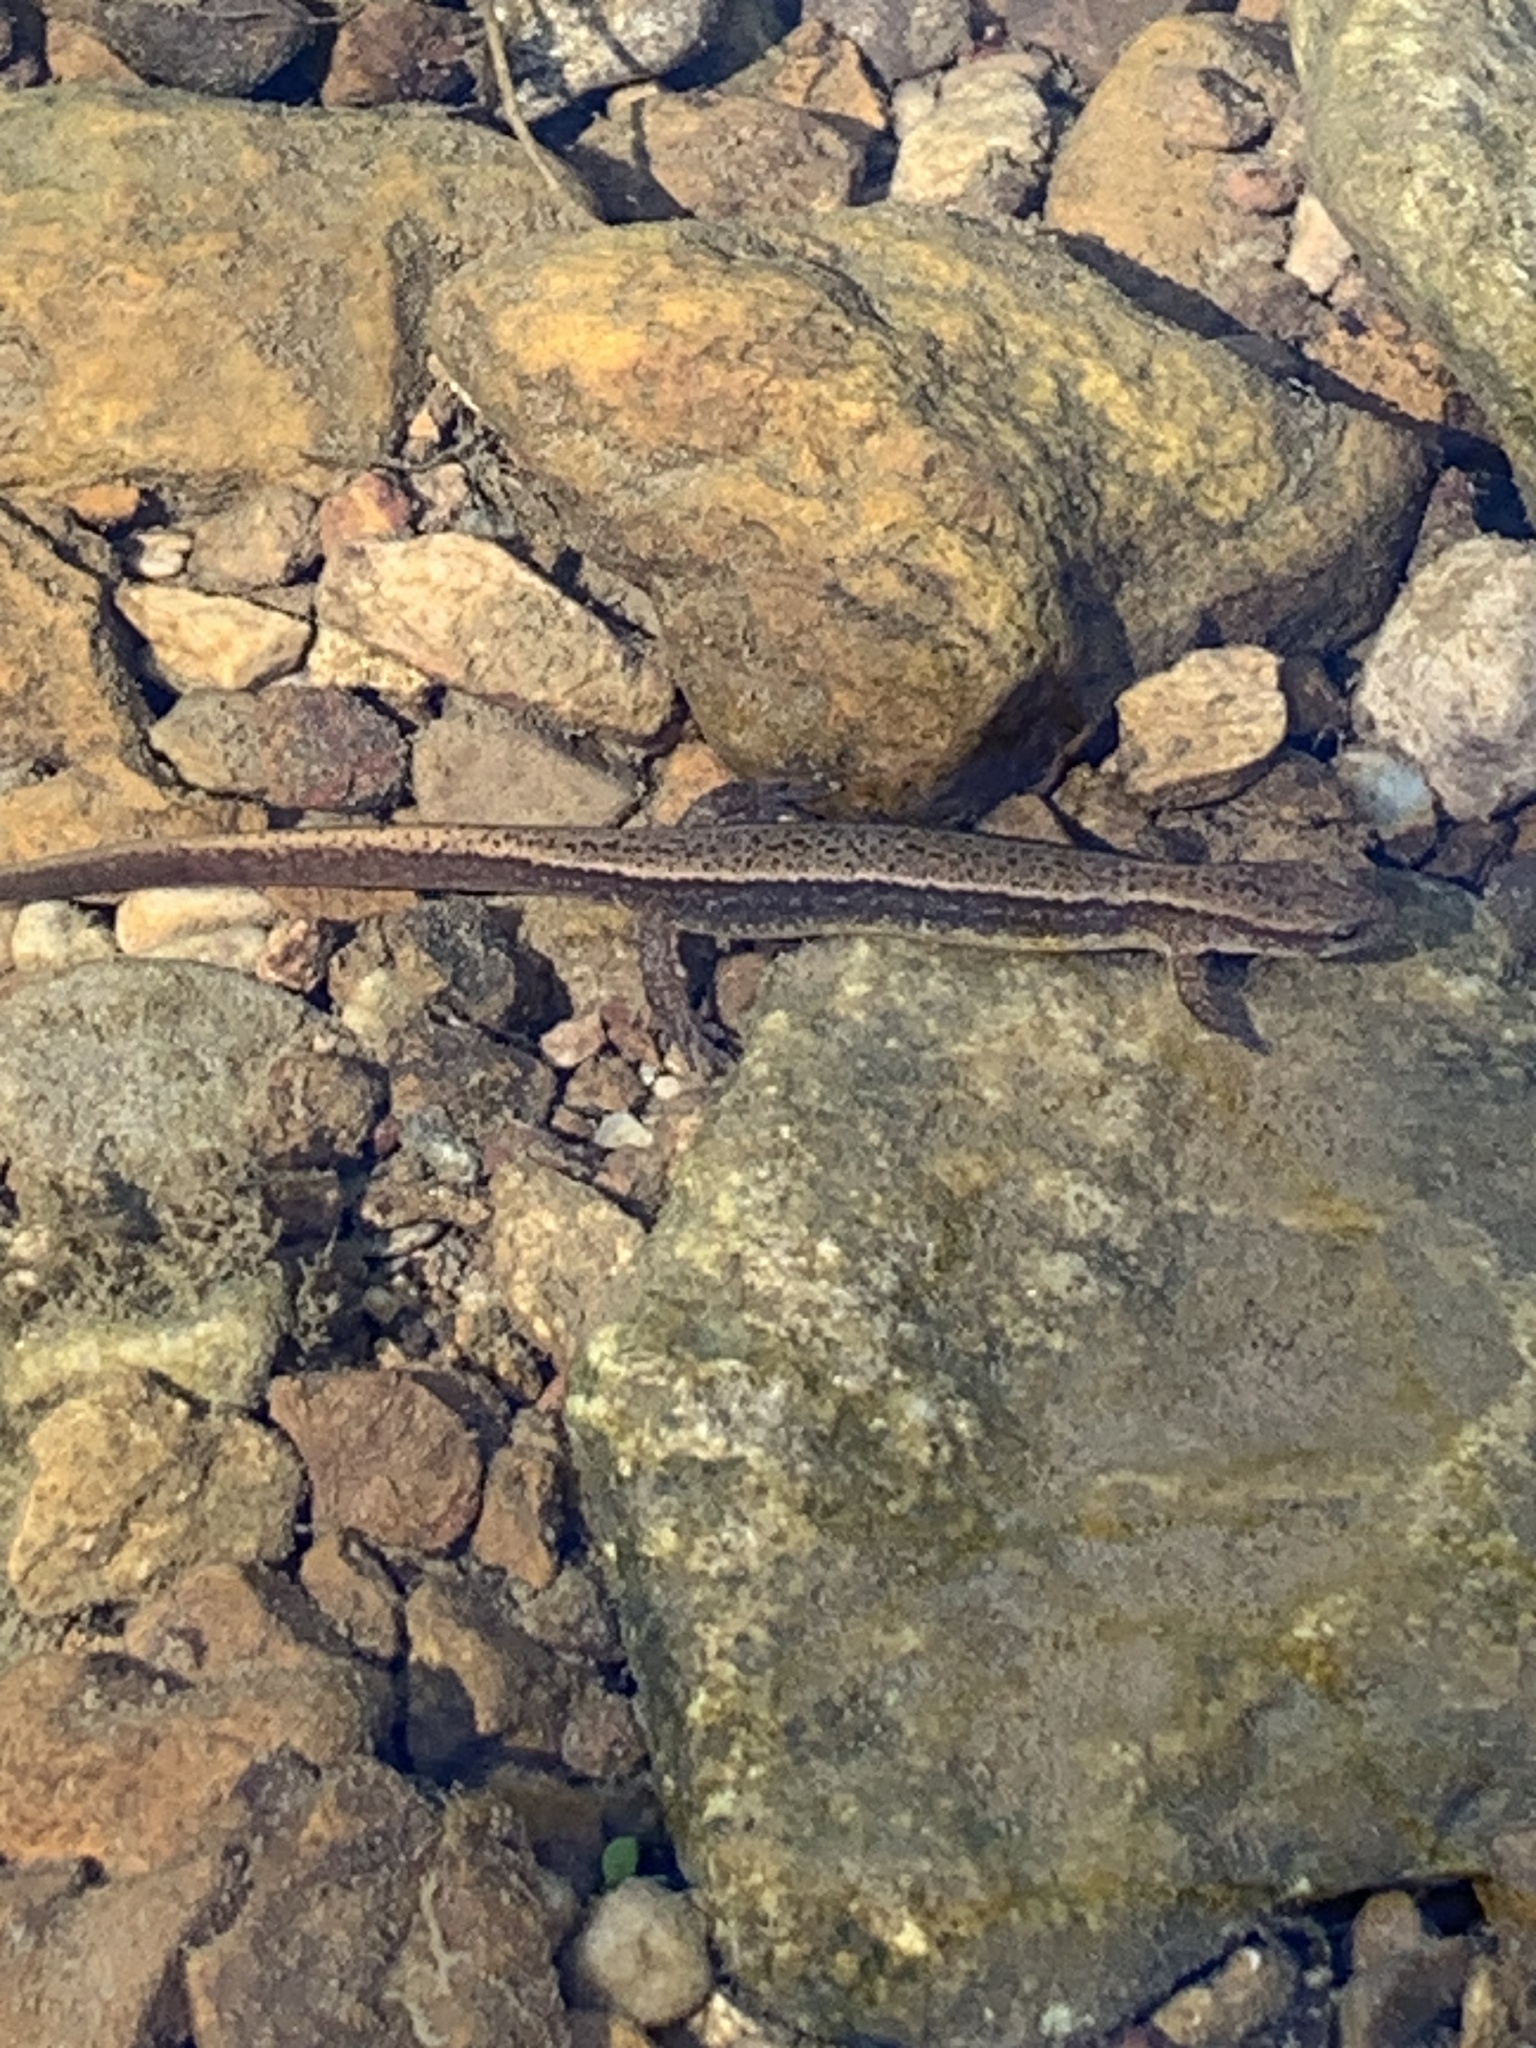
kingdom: Animalia
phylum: Chordata
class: Amphibia
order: Caudata
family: Plethodontidae
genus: Eurycea
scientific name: Eurycea cirrigera
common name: Southern two-lined salamander
